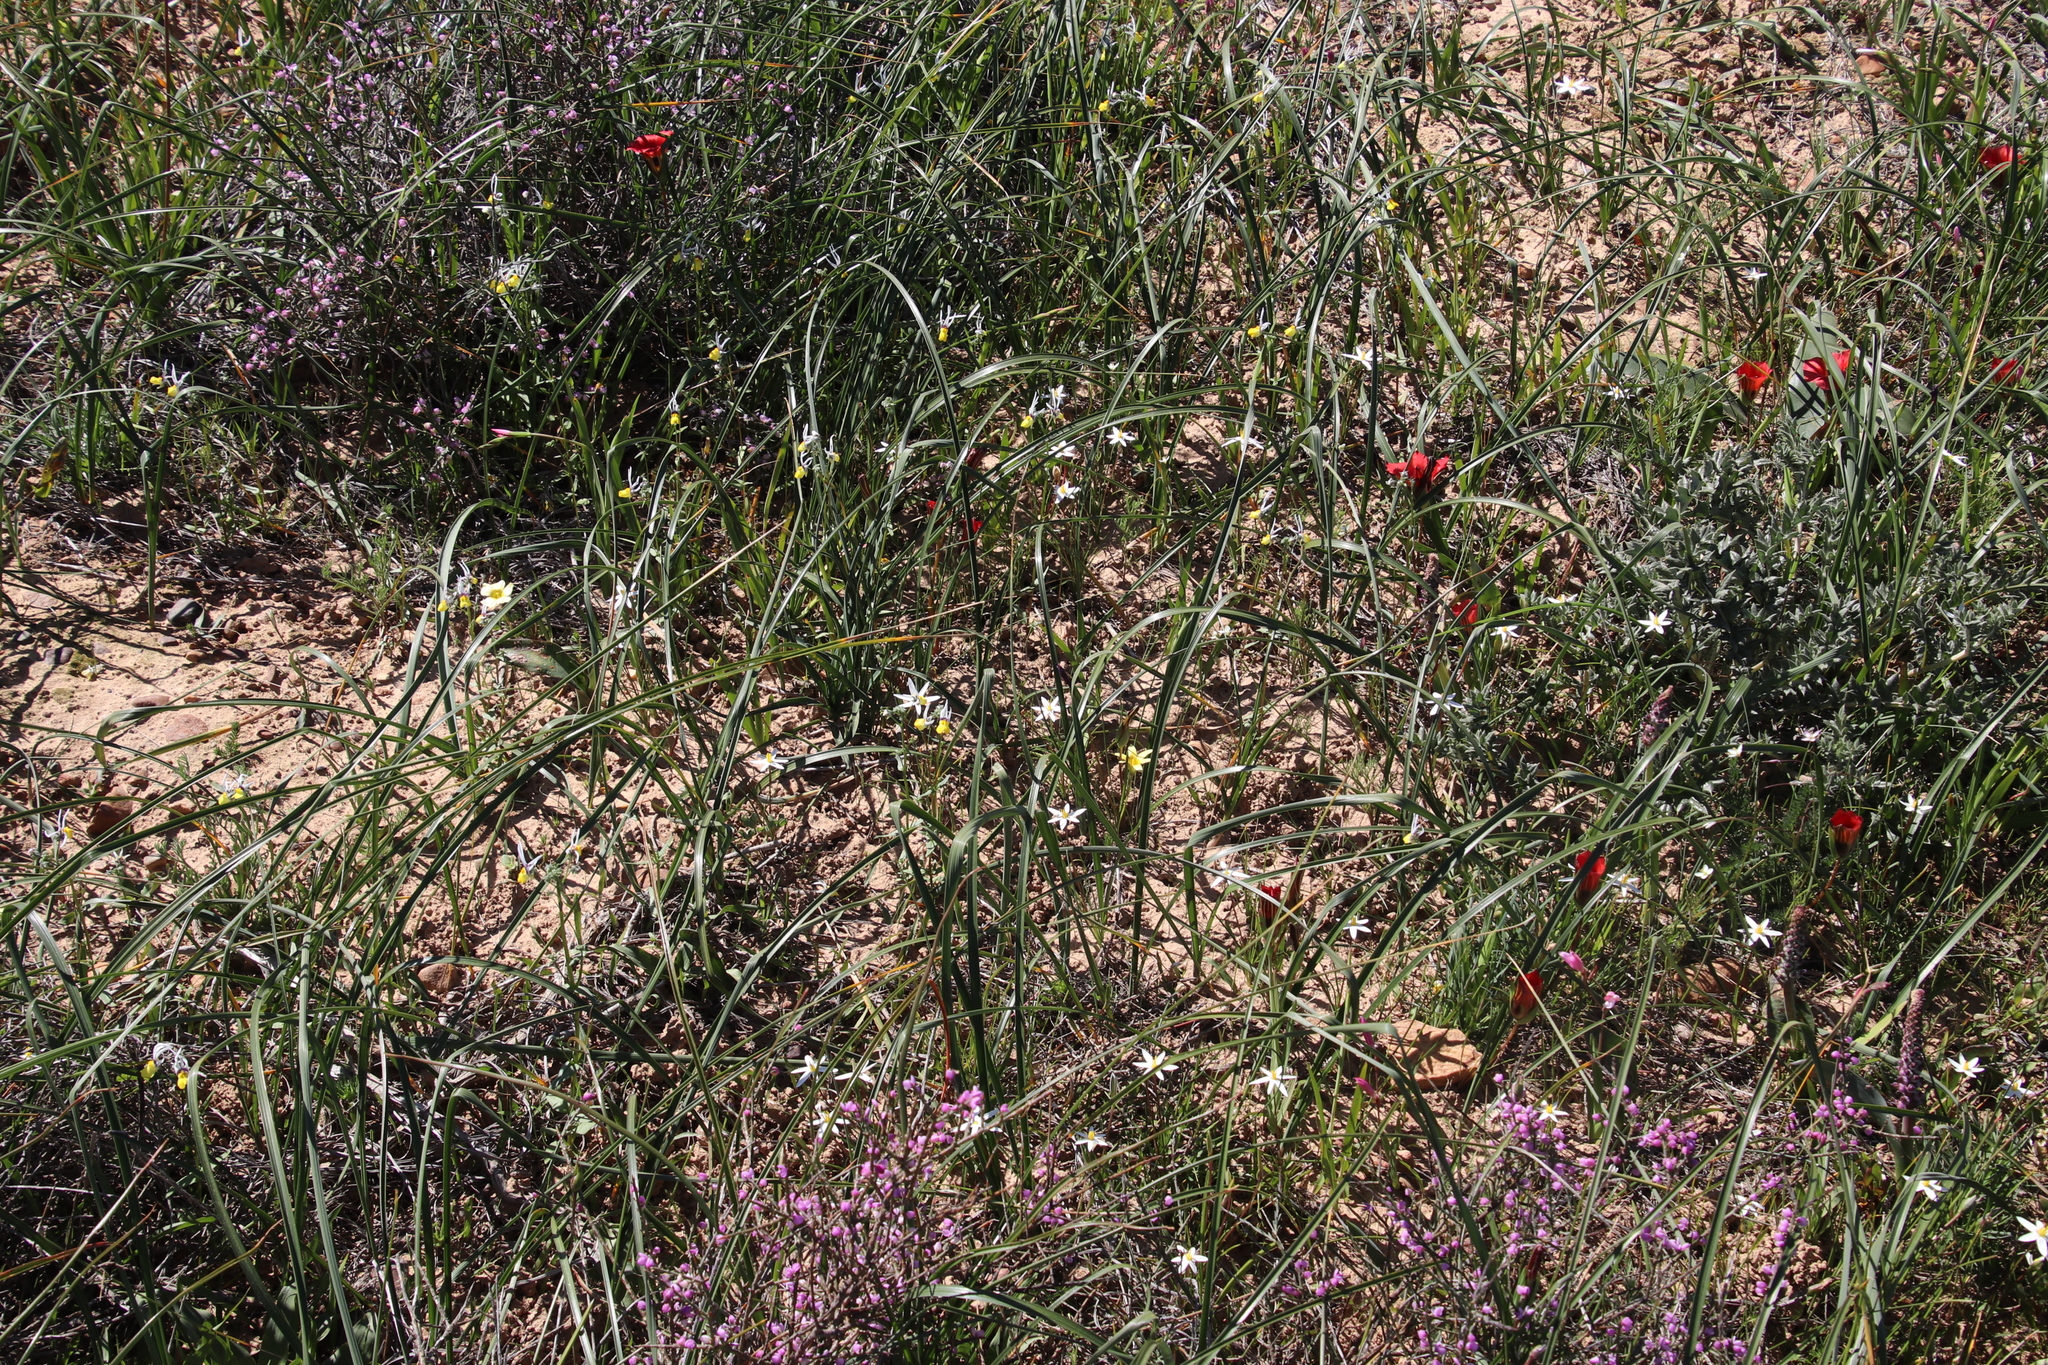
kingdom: Plantae
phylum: Tracheophyta
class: Magnoliopsida
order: Lamiales
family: Scrophulariaceae
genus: Nemesia
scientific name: Nemesia cheiranthus
